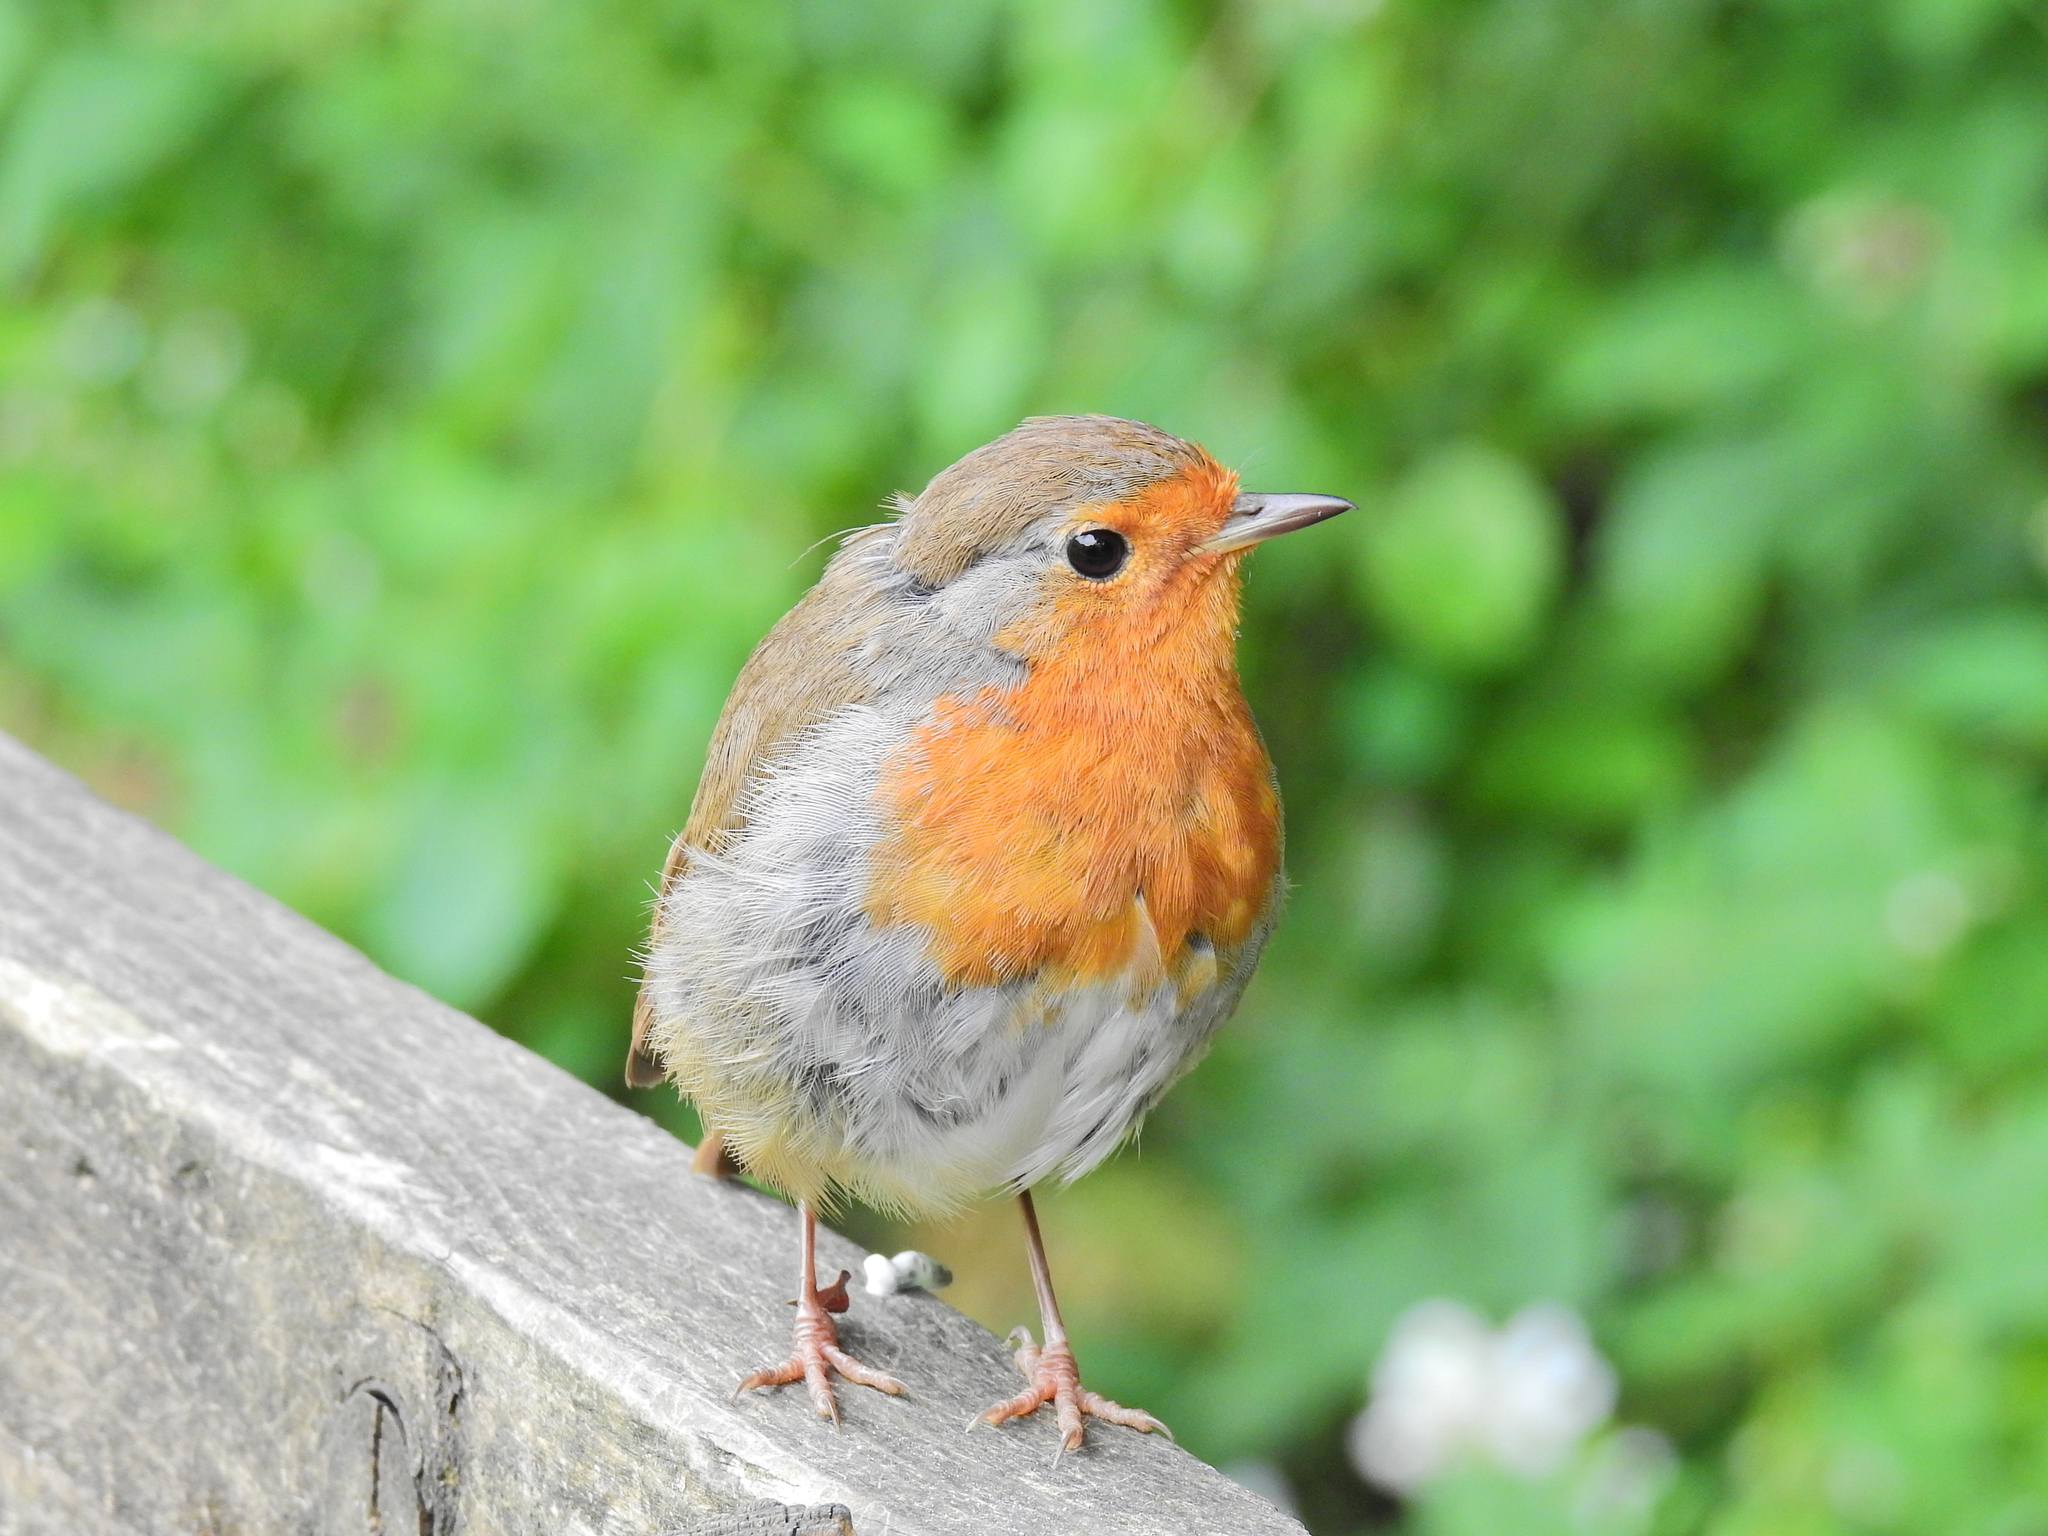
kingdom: Animalia
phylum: Chordata
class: Aves
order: Passeriformes
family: Muscicapidae
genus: Erithacus
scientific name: Erithacus rubecula
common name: European robin
